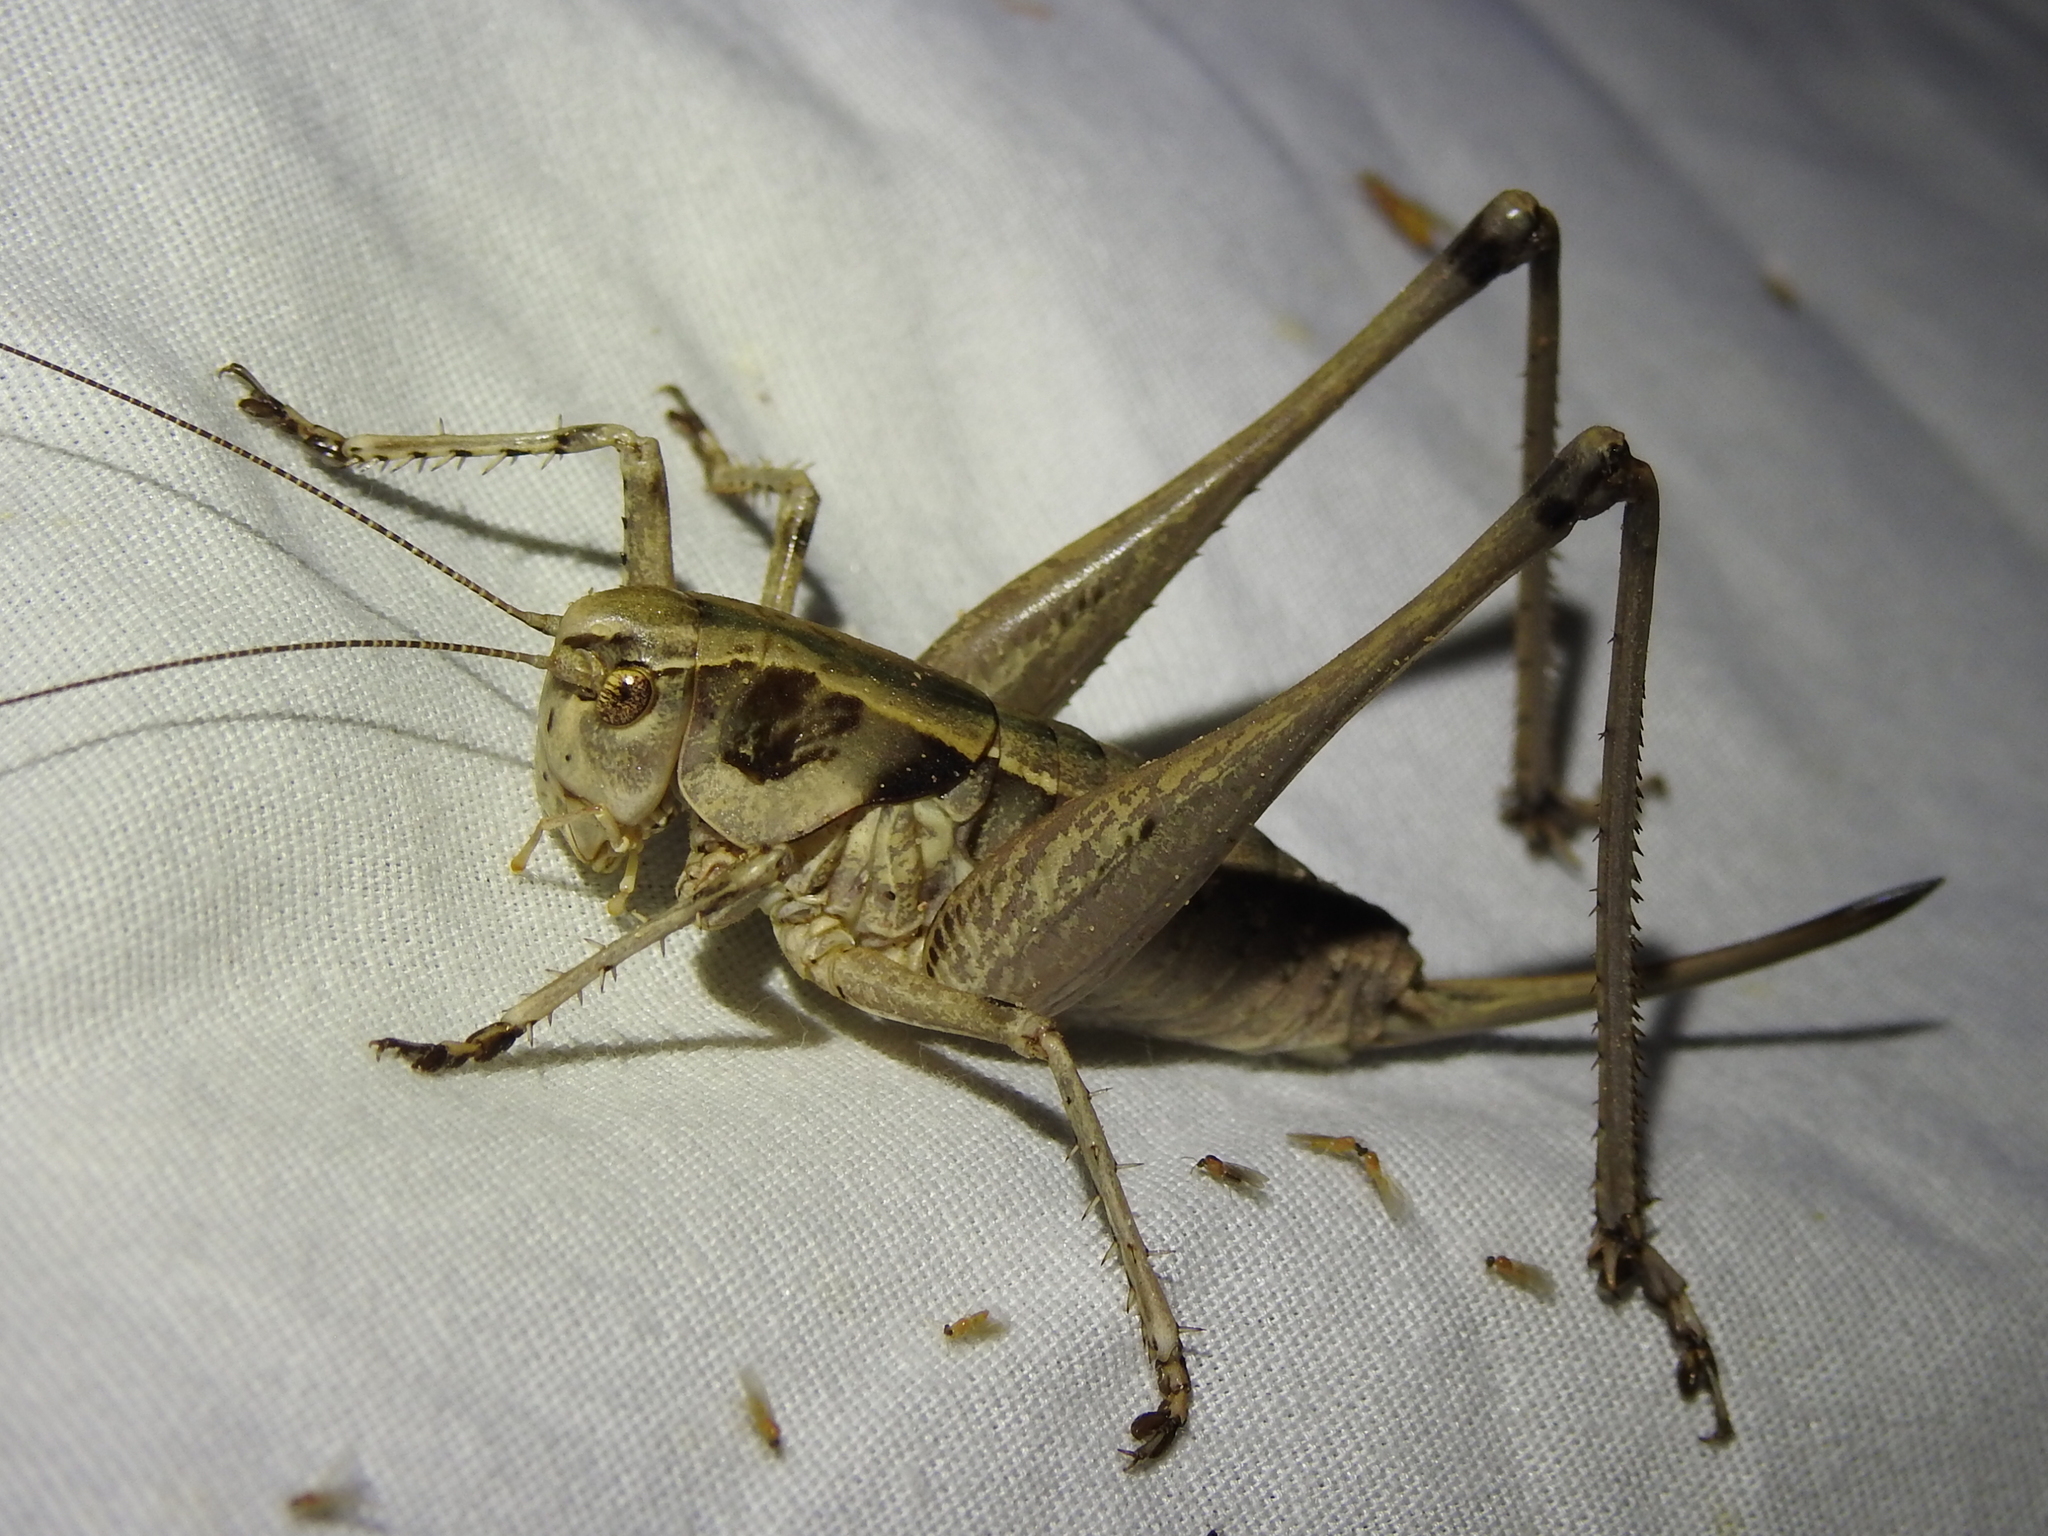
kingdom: Animalia
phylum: Arthropoda
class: Insecta
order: Orthoptera
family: Tettigoniidae
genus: Pediodectes
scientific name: Pediodectes nigromarginatus
